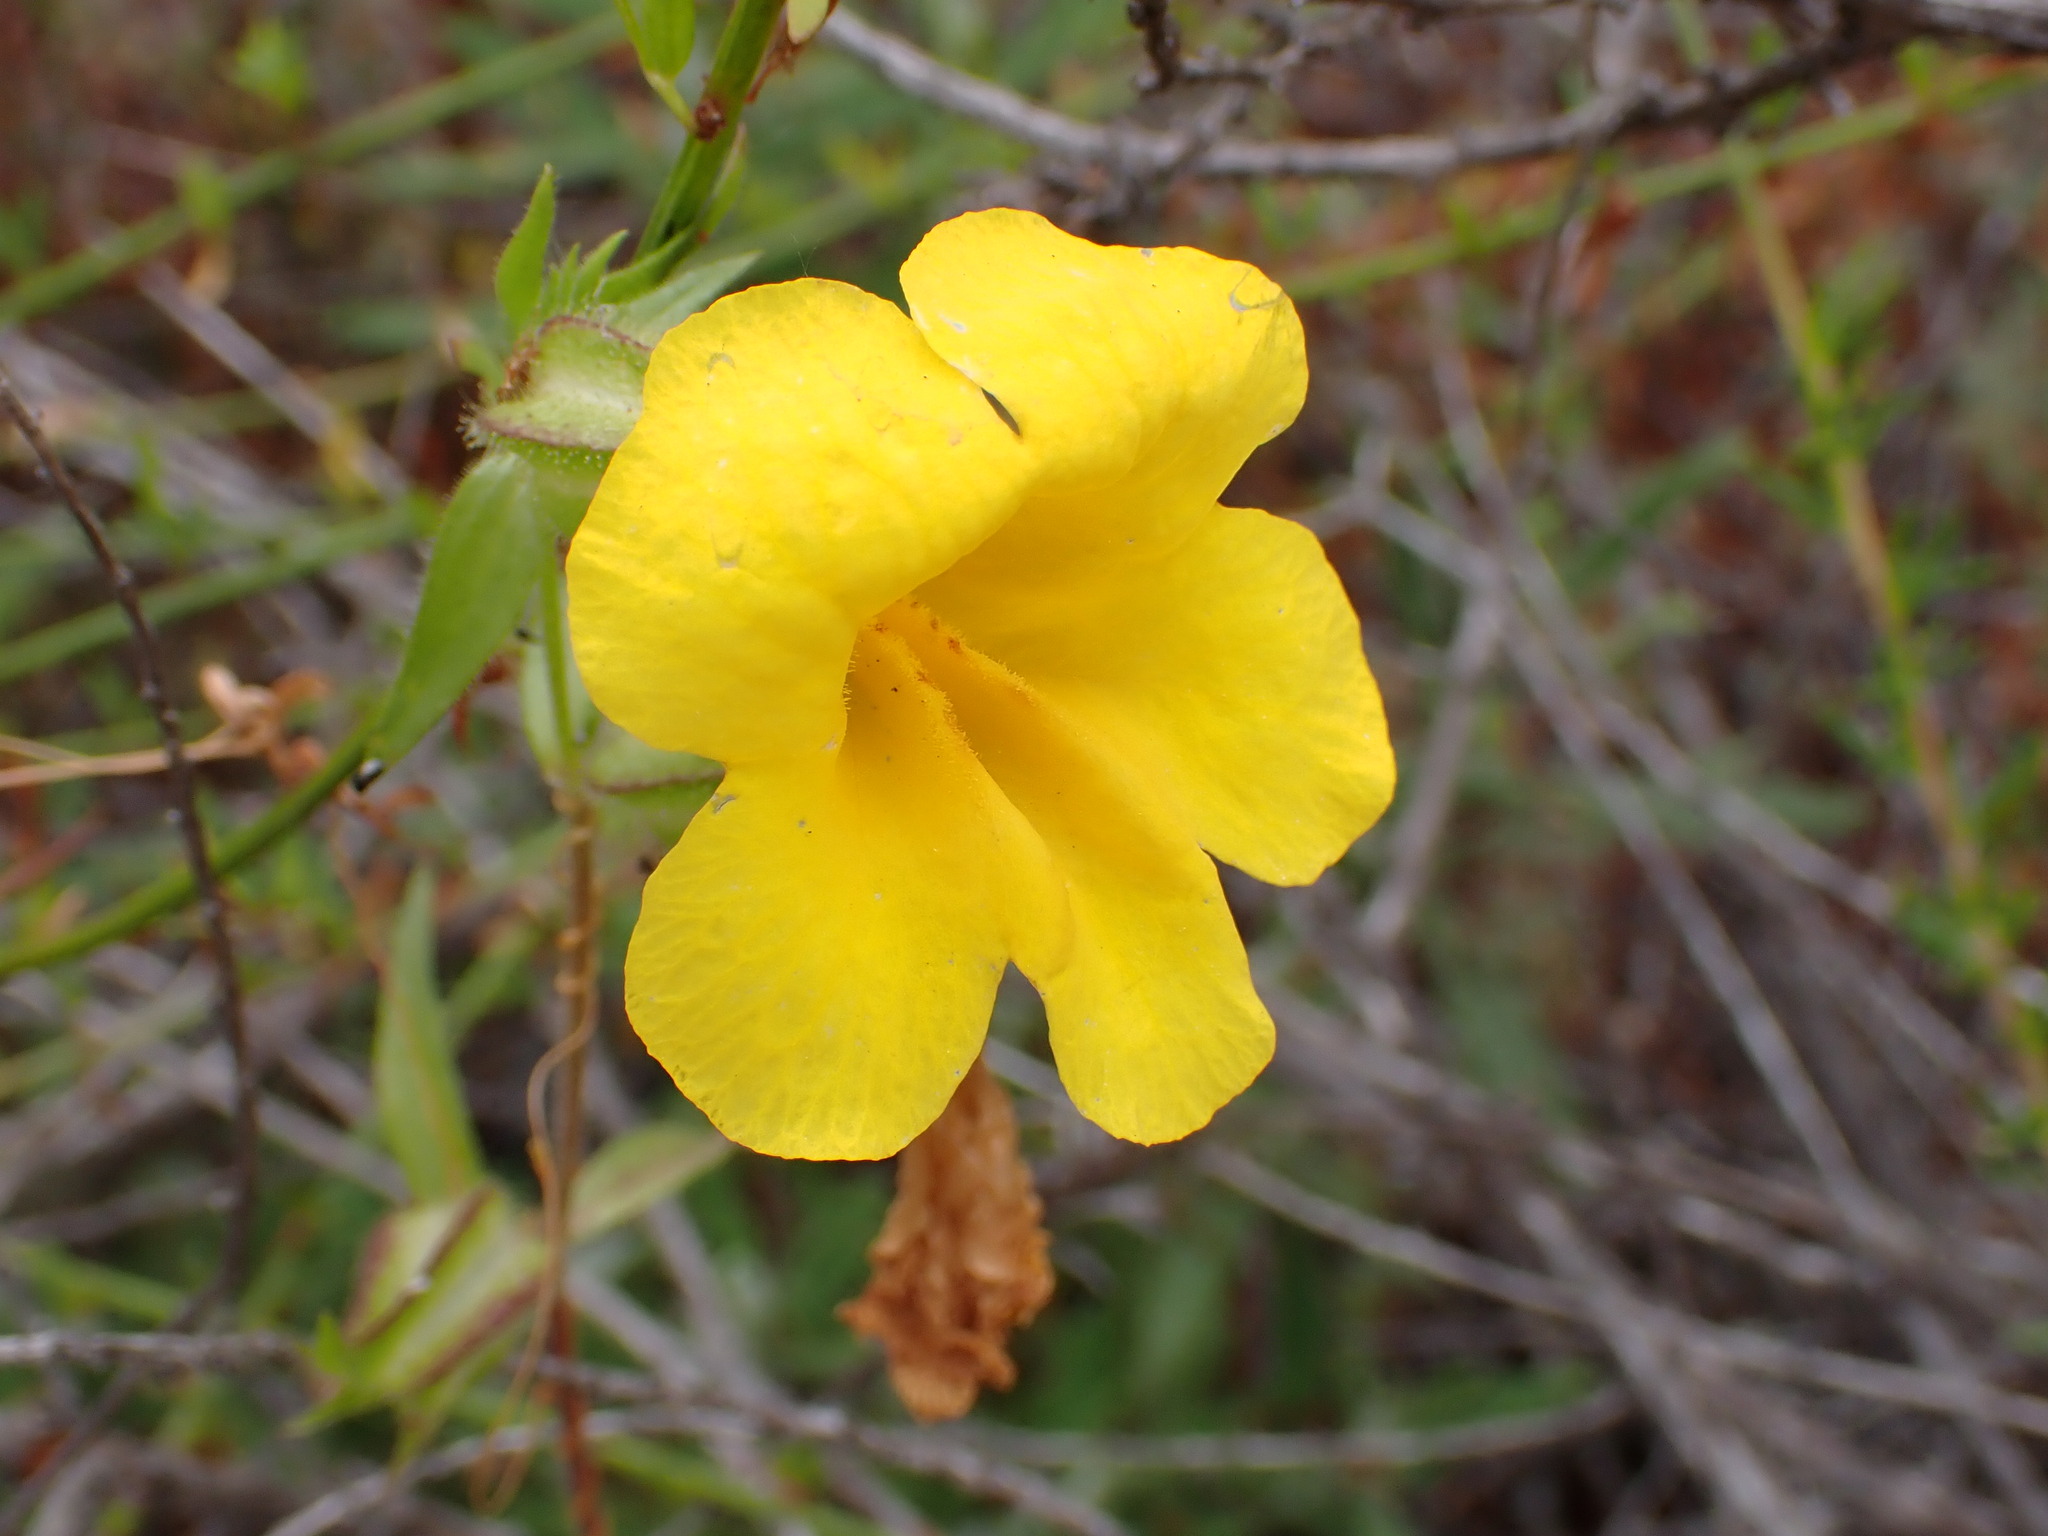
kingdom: Plantae
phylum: Tracheophyta
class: Magnoliopsida
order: Lamiales
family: Phrymaceae
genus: Diplacus
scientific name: Diplacus brevipes
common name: Wide-throat yellow monkey-flower
